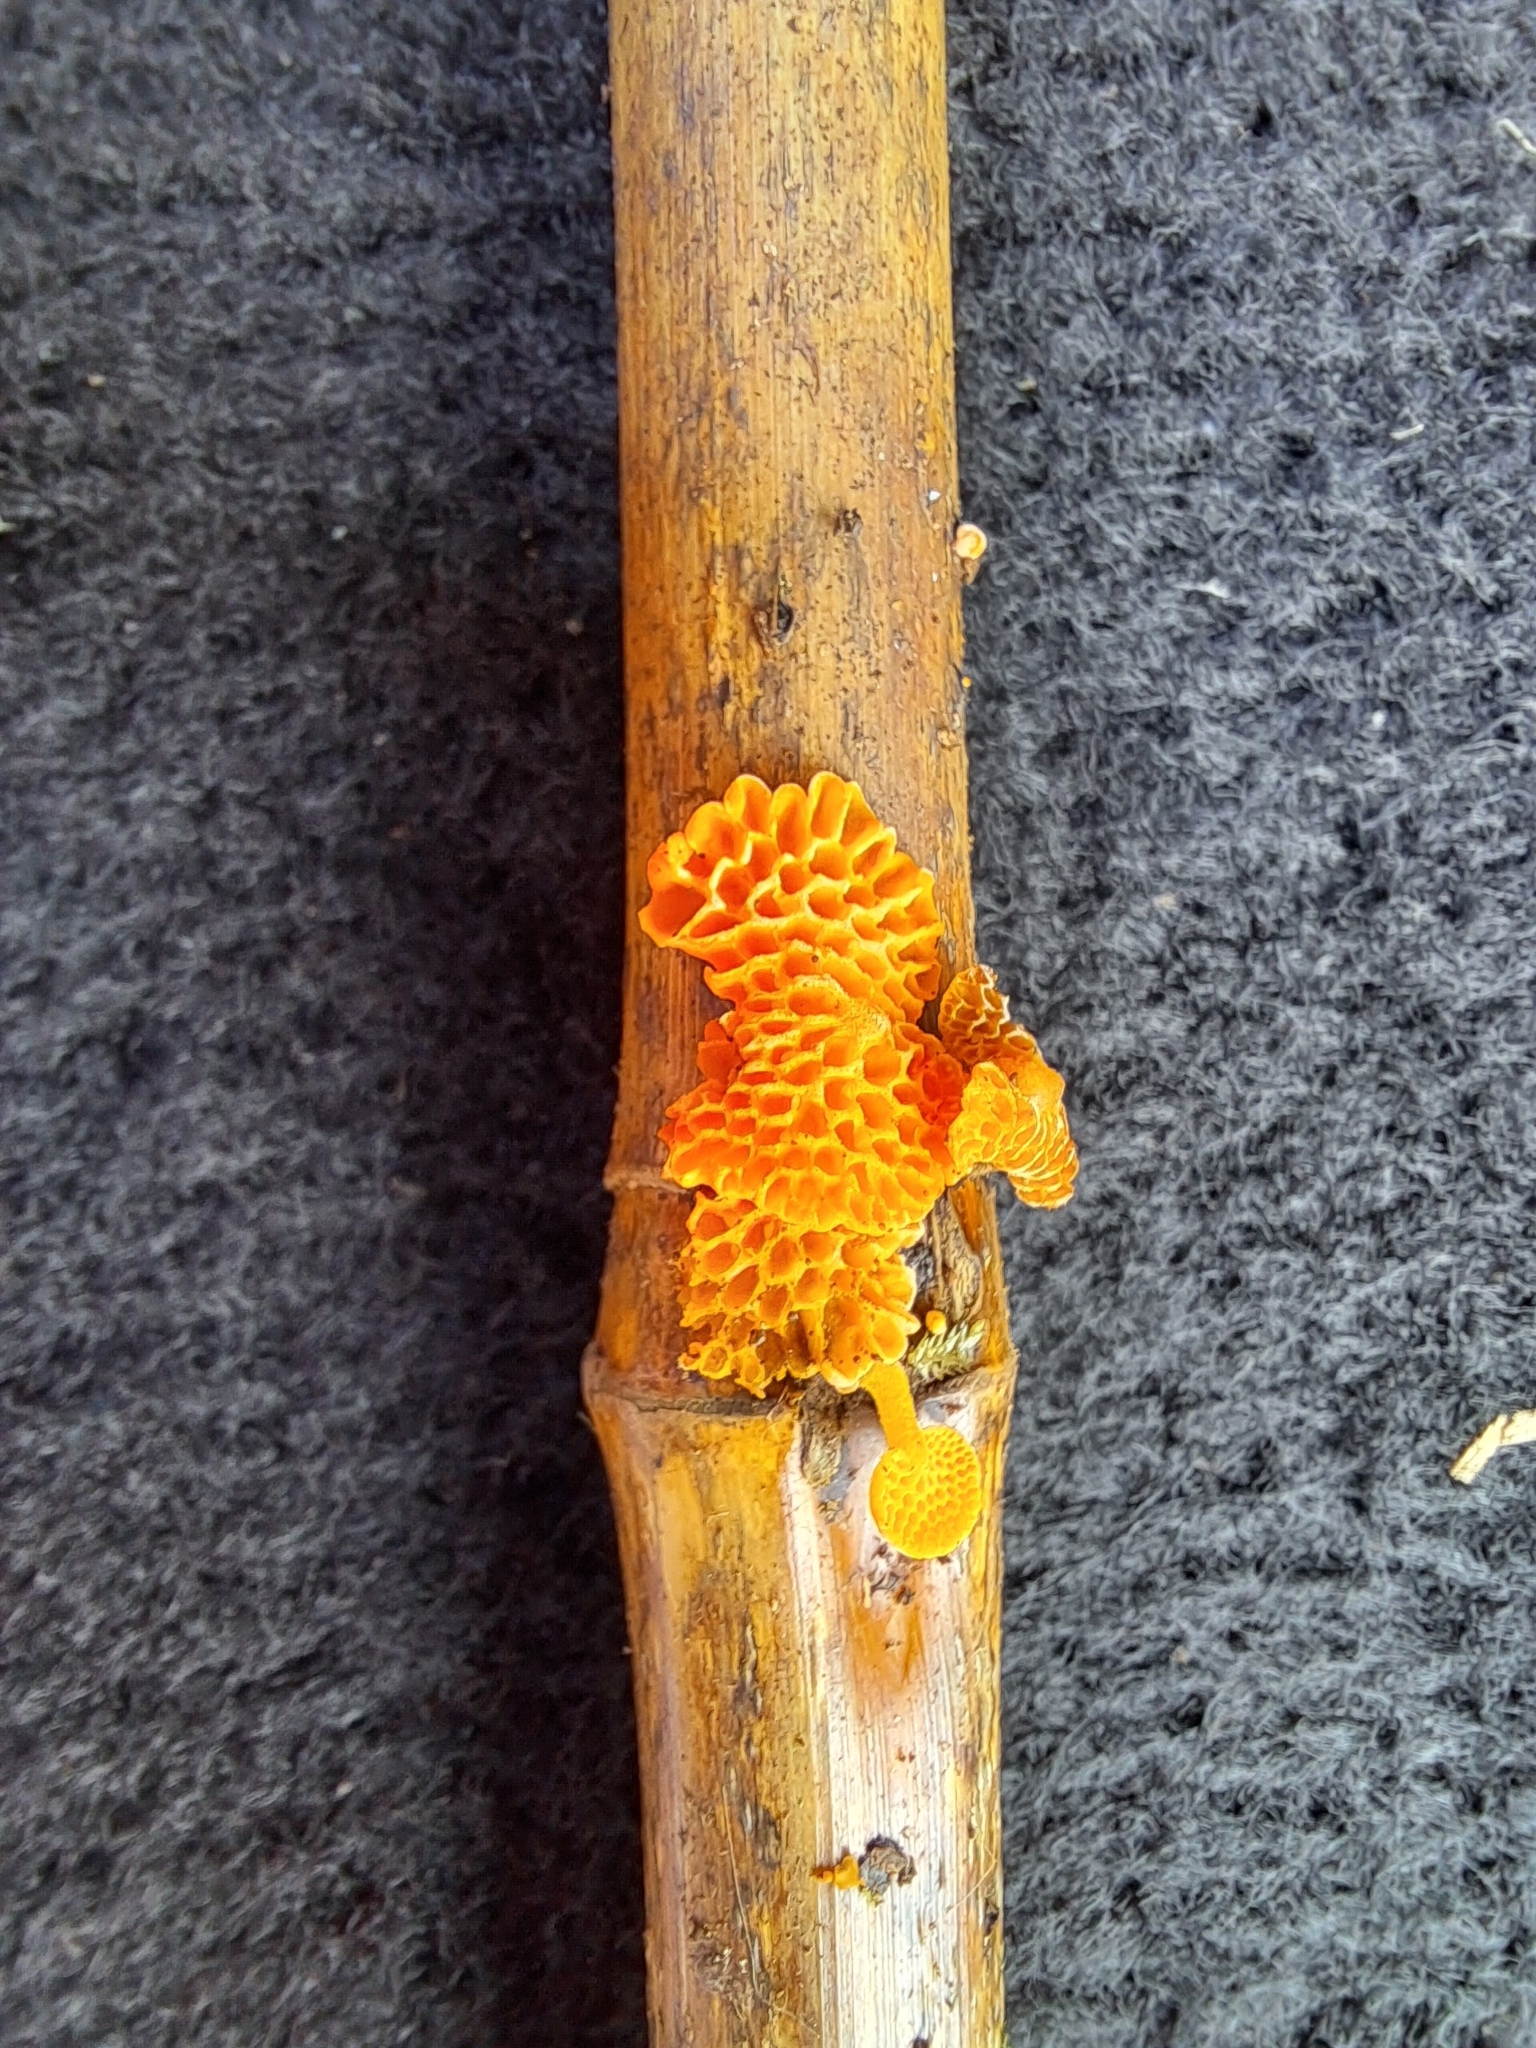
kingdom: Fungi
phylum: Basidiomycota
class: Agaricomycetes
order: Agaricales
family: Mycenaceae
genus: Favolaschia
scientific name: Favolaschia claudopus
